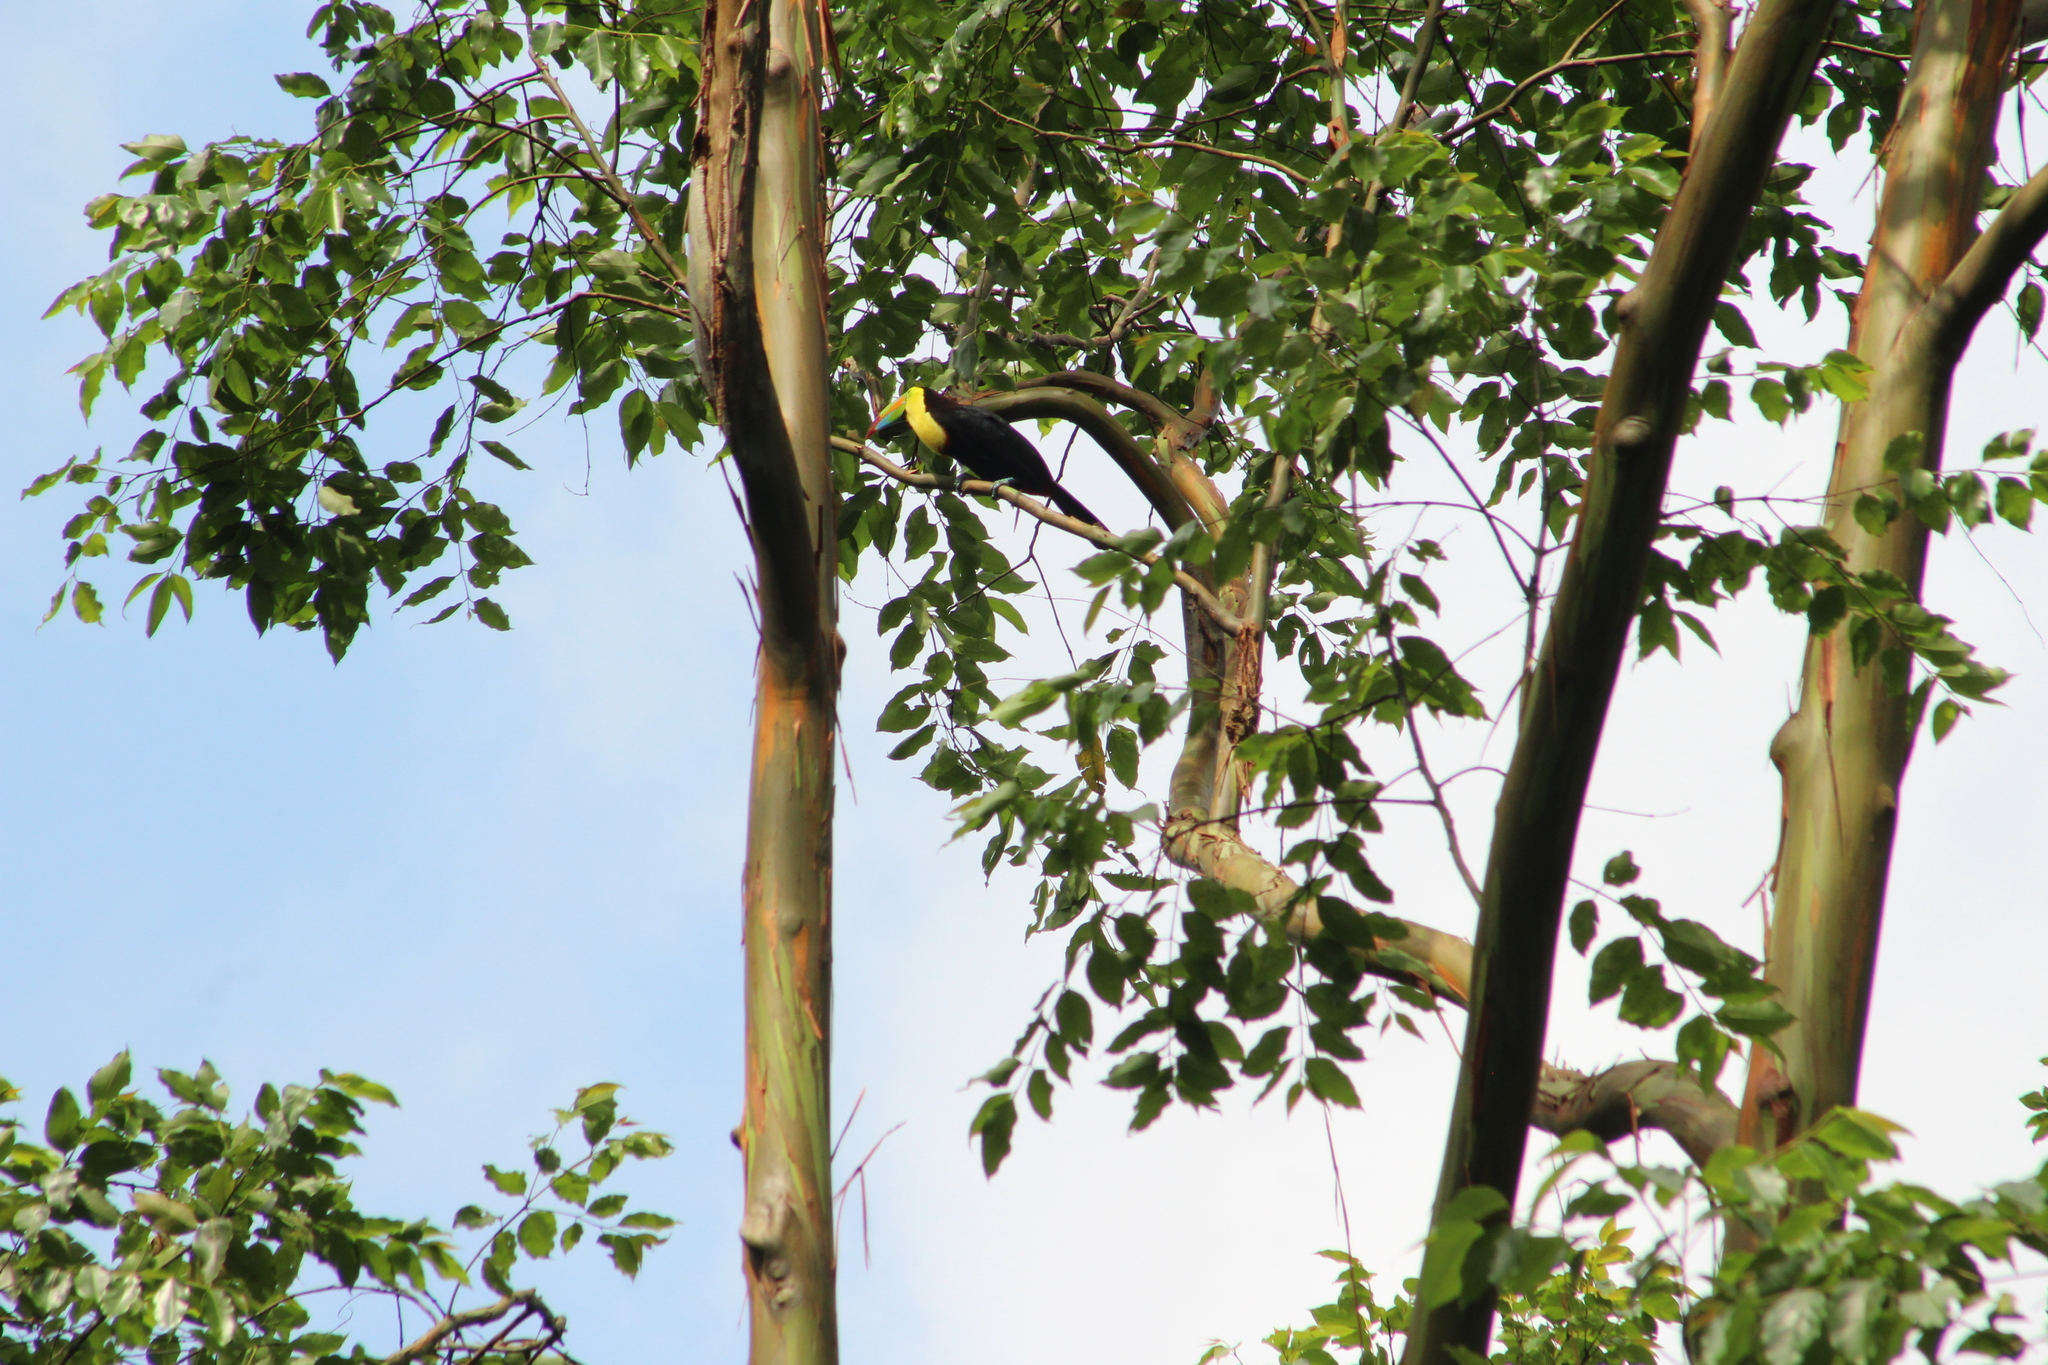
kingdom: Plantae
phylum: Tracheophyta
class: Magnoliopsida
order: Myrtales
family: Myrtaceae
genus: Eucalyptus
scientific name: Eucalyptus deglupta
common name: Mindanao gum
